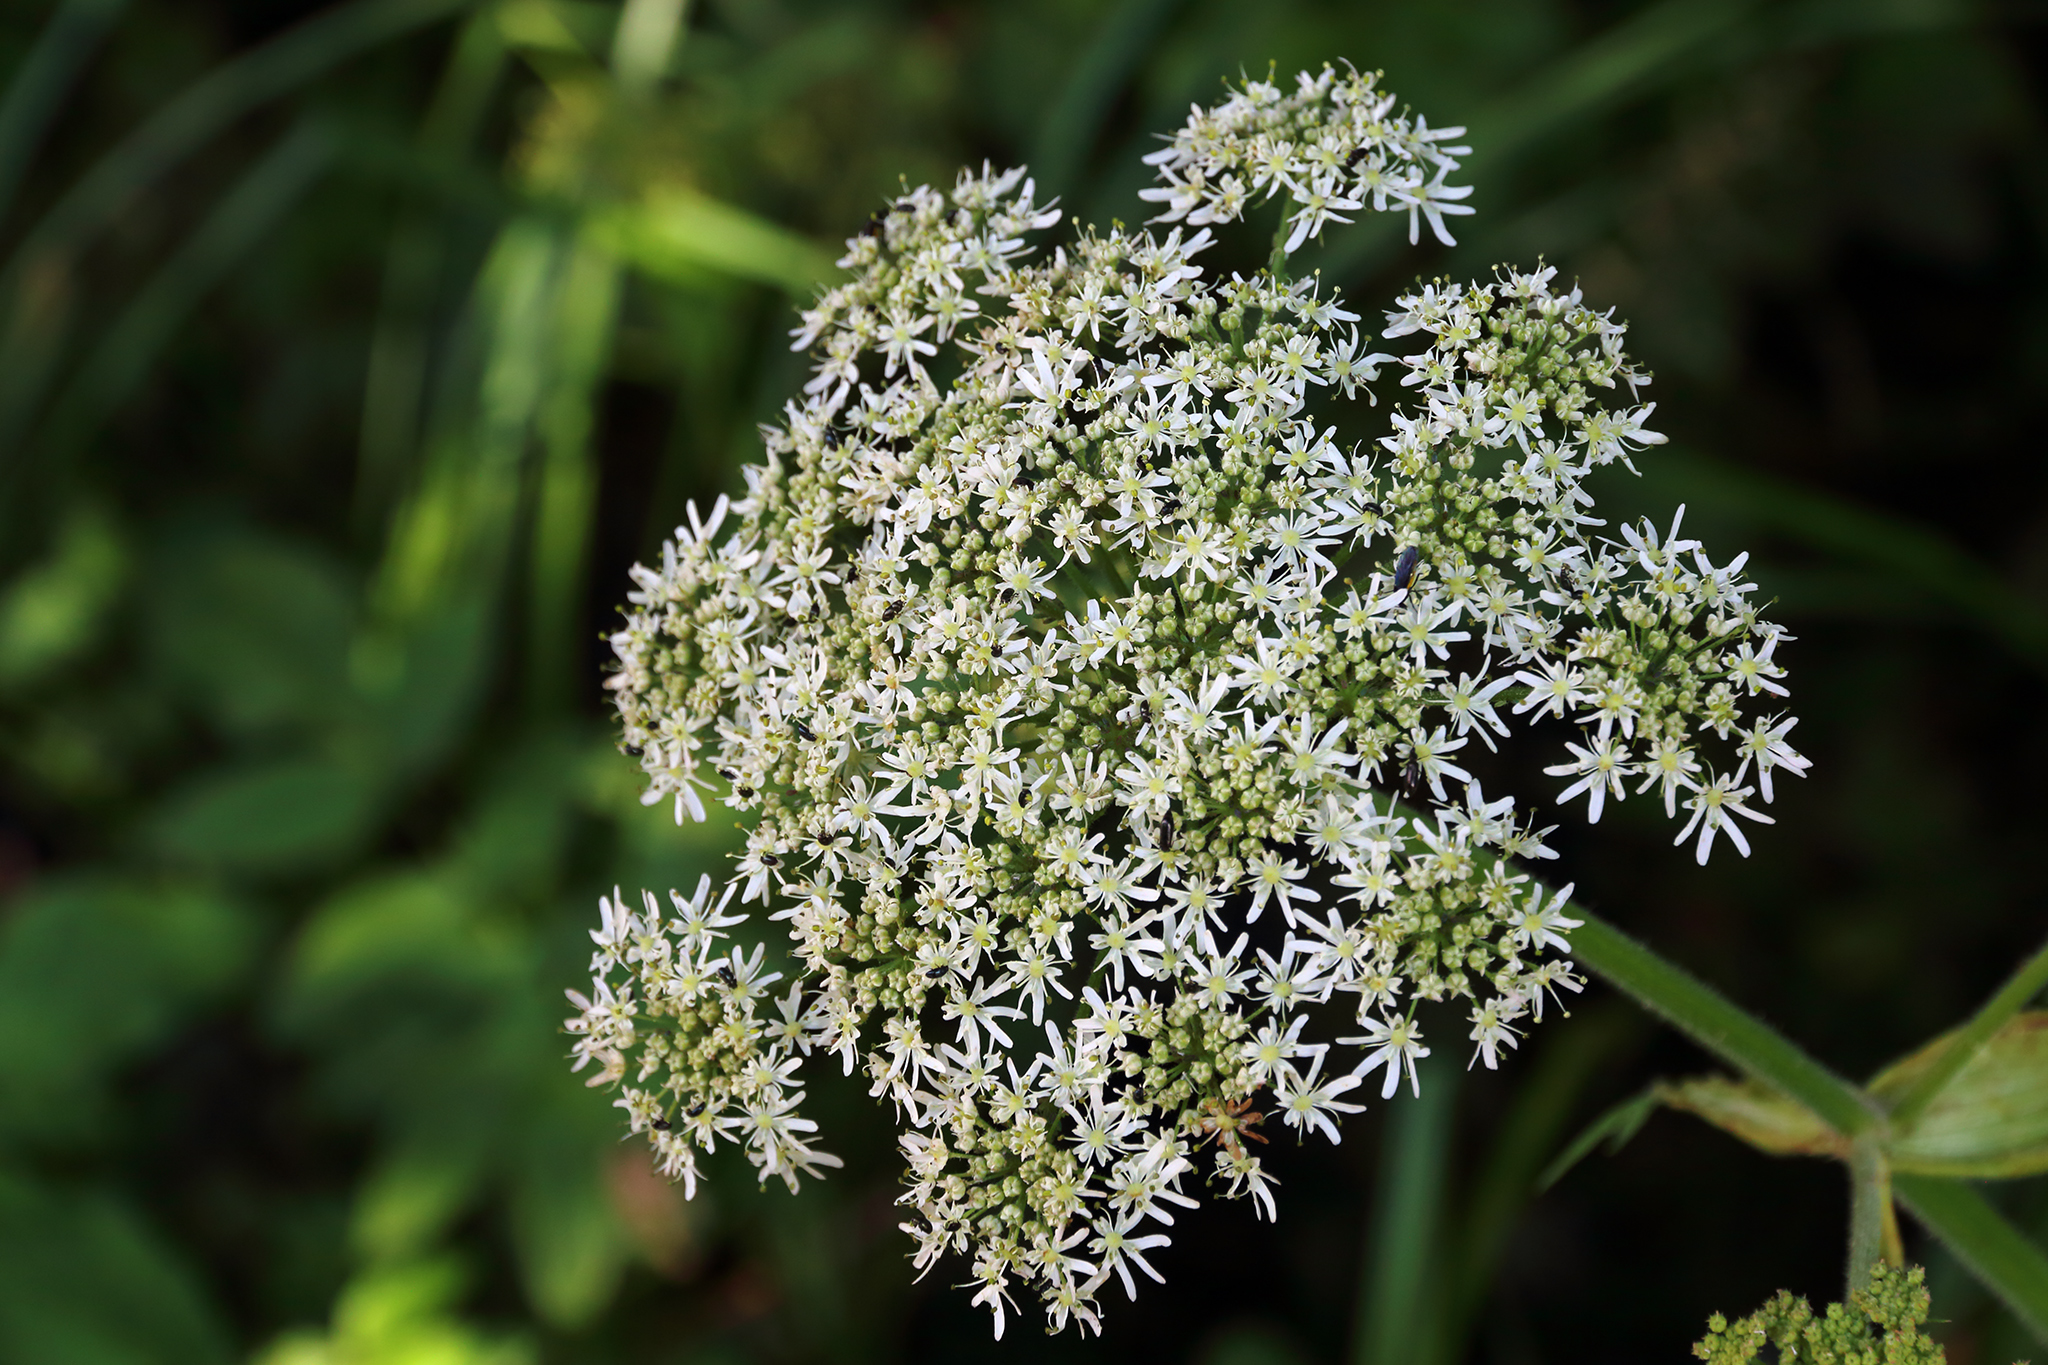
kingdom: Plantae
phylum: Tracheophyta
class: Magnoliopsida
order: Apiales
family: Apiaceae
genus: Heracleum
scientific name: Heracleum sphondylium
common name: Hogweed
